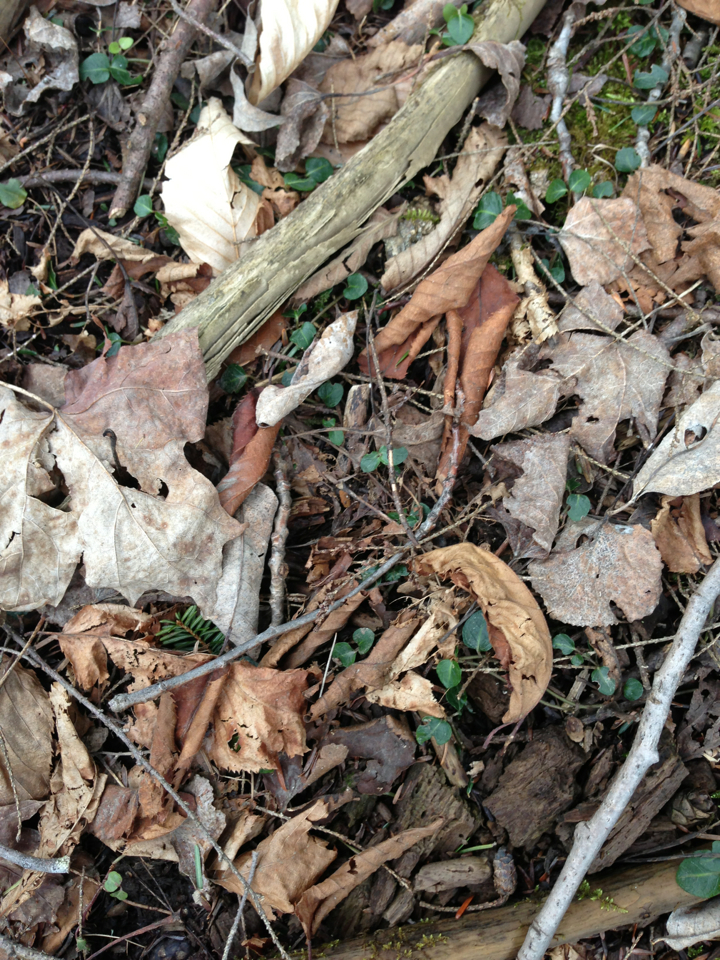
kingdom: Plantae
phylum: Tracheophyta
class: Magnoliopsida
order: Gentianales
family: Rubiaceae
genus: Mitchella
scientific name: Mitchella repens
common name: Partridge-berry
